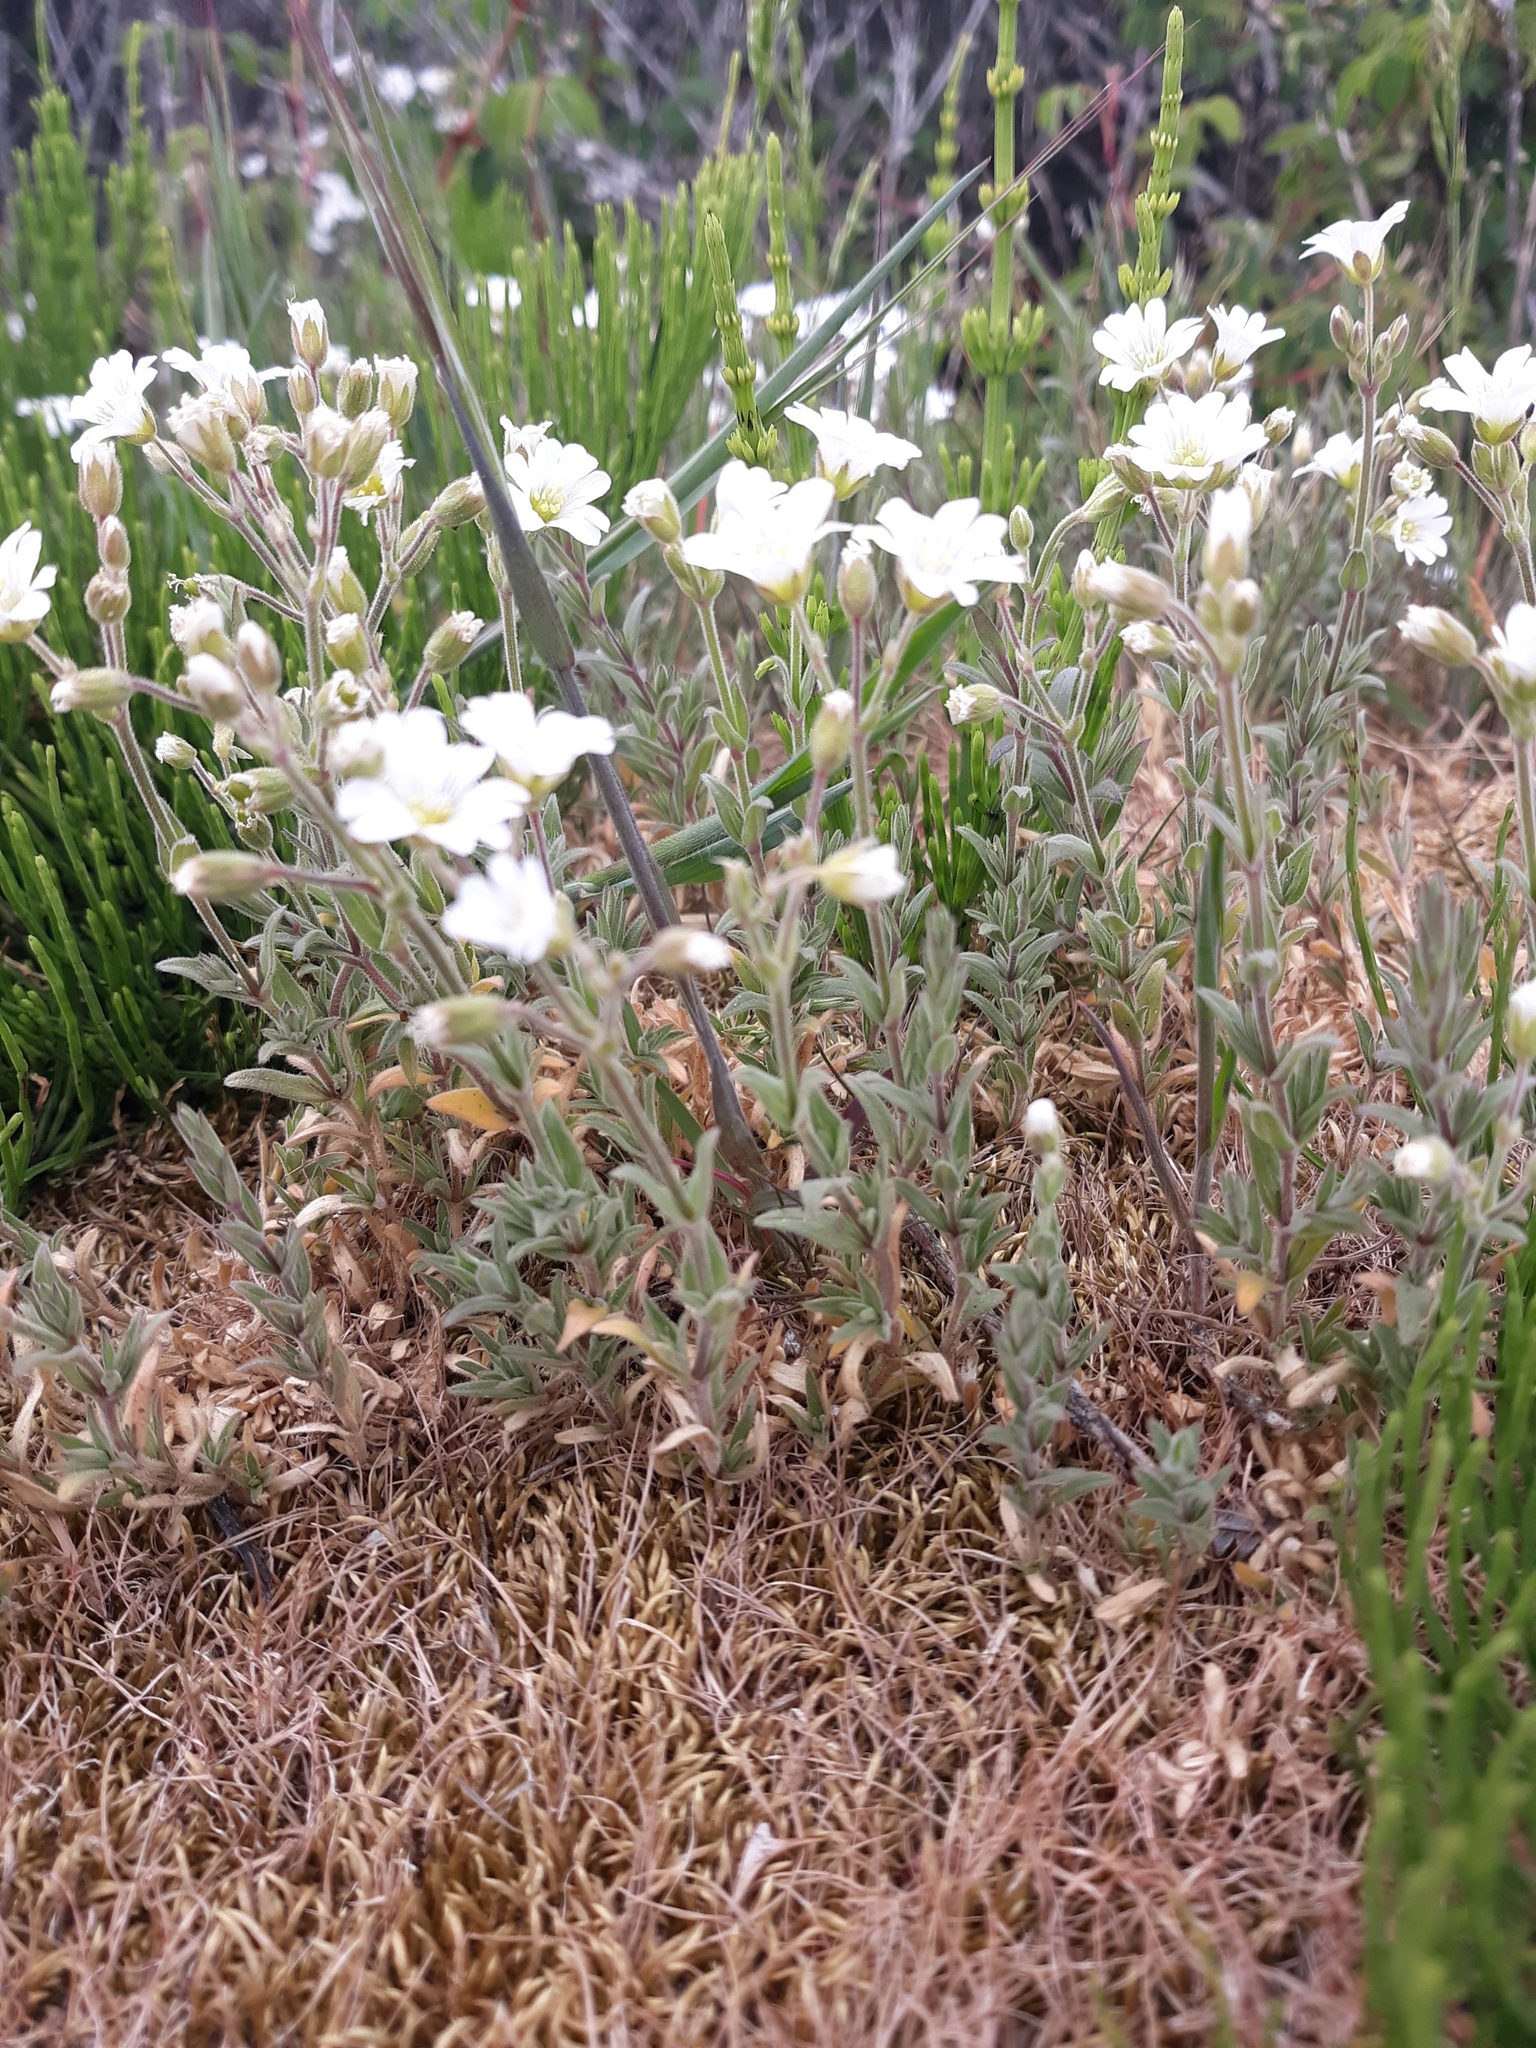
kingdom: Plantae
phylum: Tracheophyta
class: Magnoliopsida
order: Caryophyllales
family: Caryophyllaceae
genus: Cerastium
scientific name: Cerastium arvense
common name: Field mouse-ear
